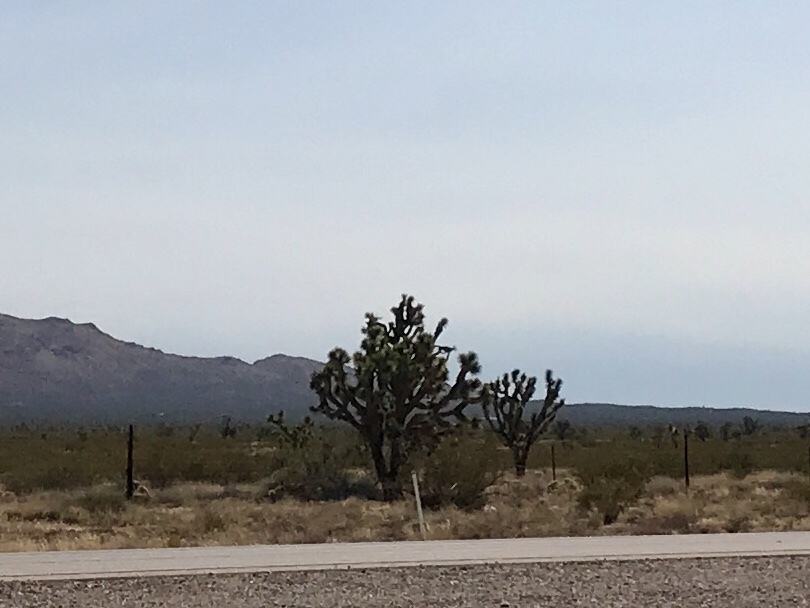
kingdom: Plantae
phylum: Tracheophyta
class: Liliopsida
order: Asparagales
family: Asparagaceae
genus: Yucca
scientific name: Yucca brevifolia
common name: Joshua tree
